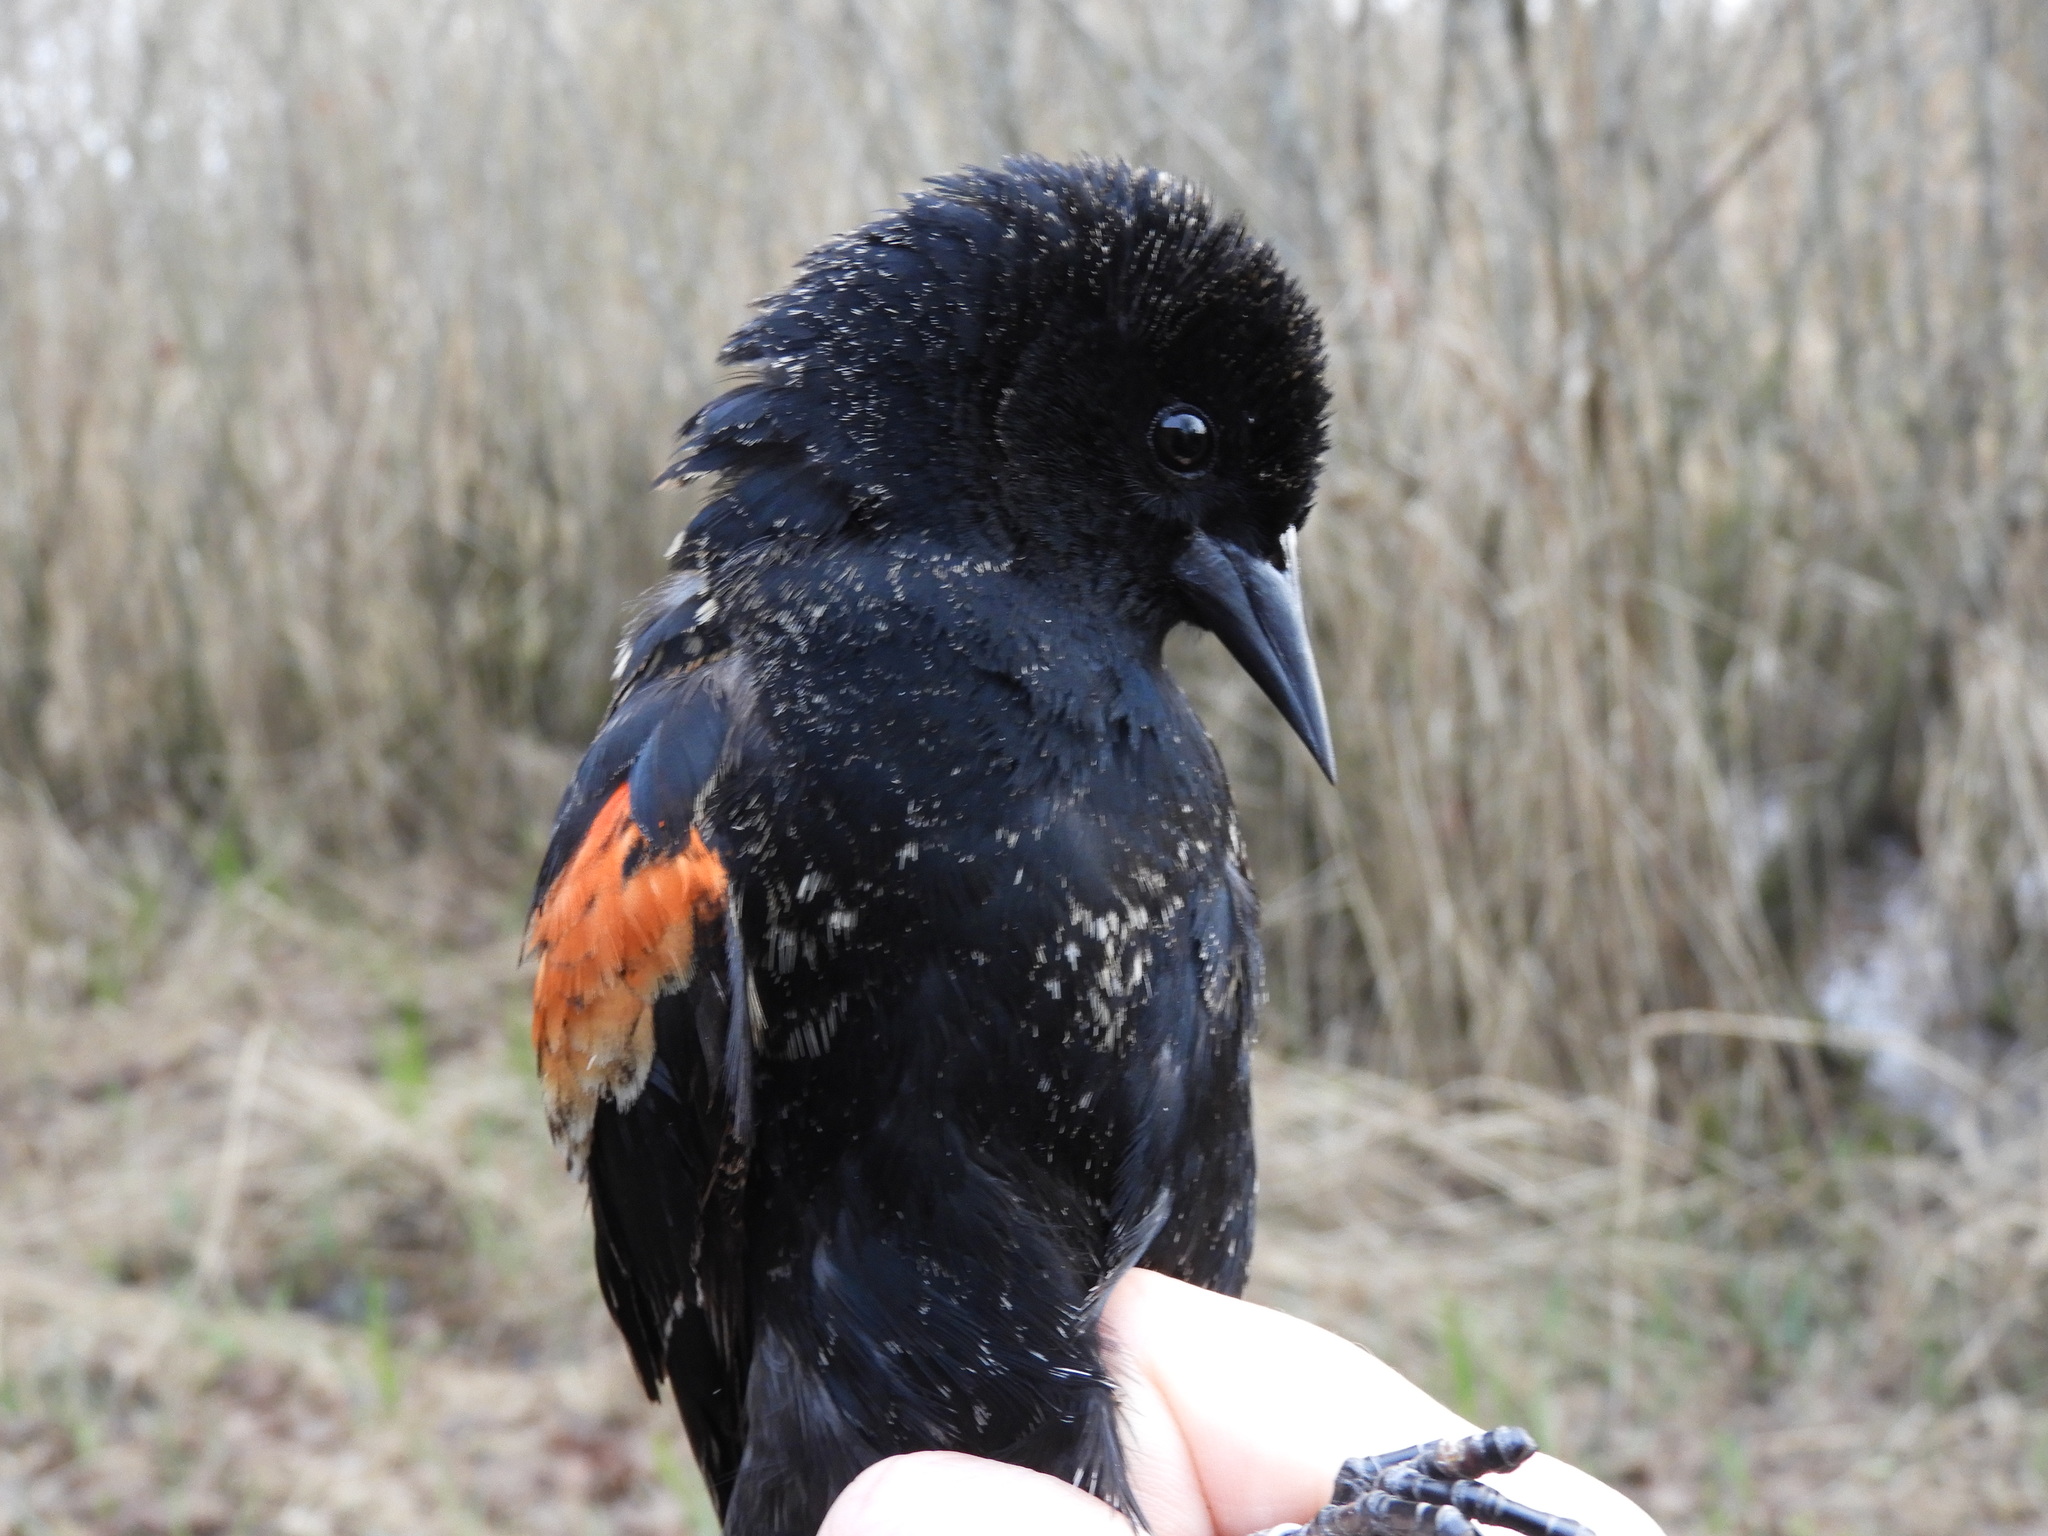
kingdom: Animalia
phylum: Chordata
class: Aves
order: Passeriformes
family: Icteridae
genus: Agelaius
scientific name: Agelaius phoeniceus
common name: Red-winged blackbird
